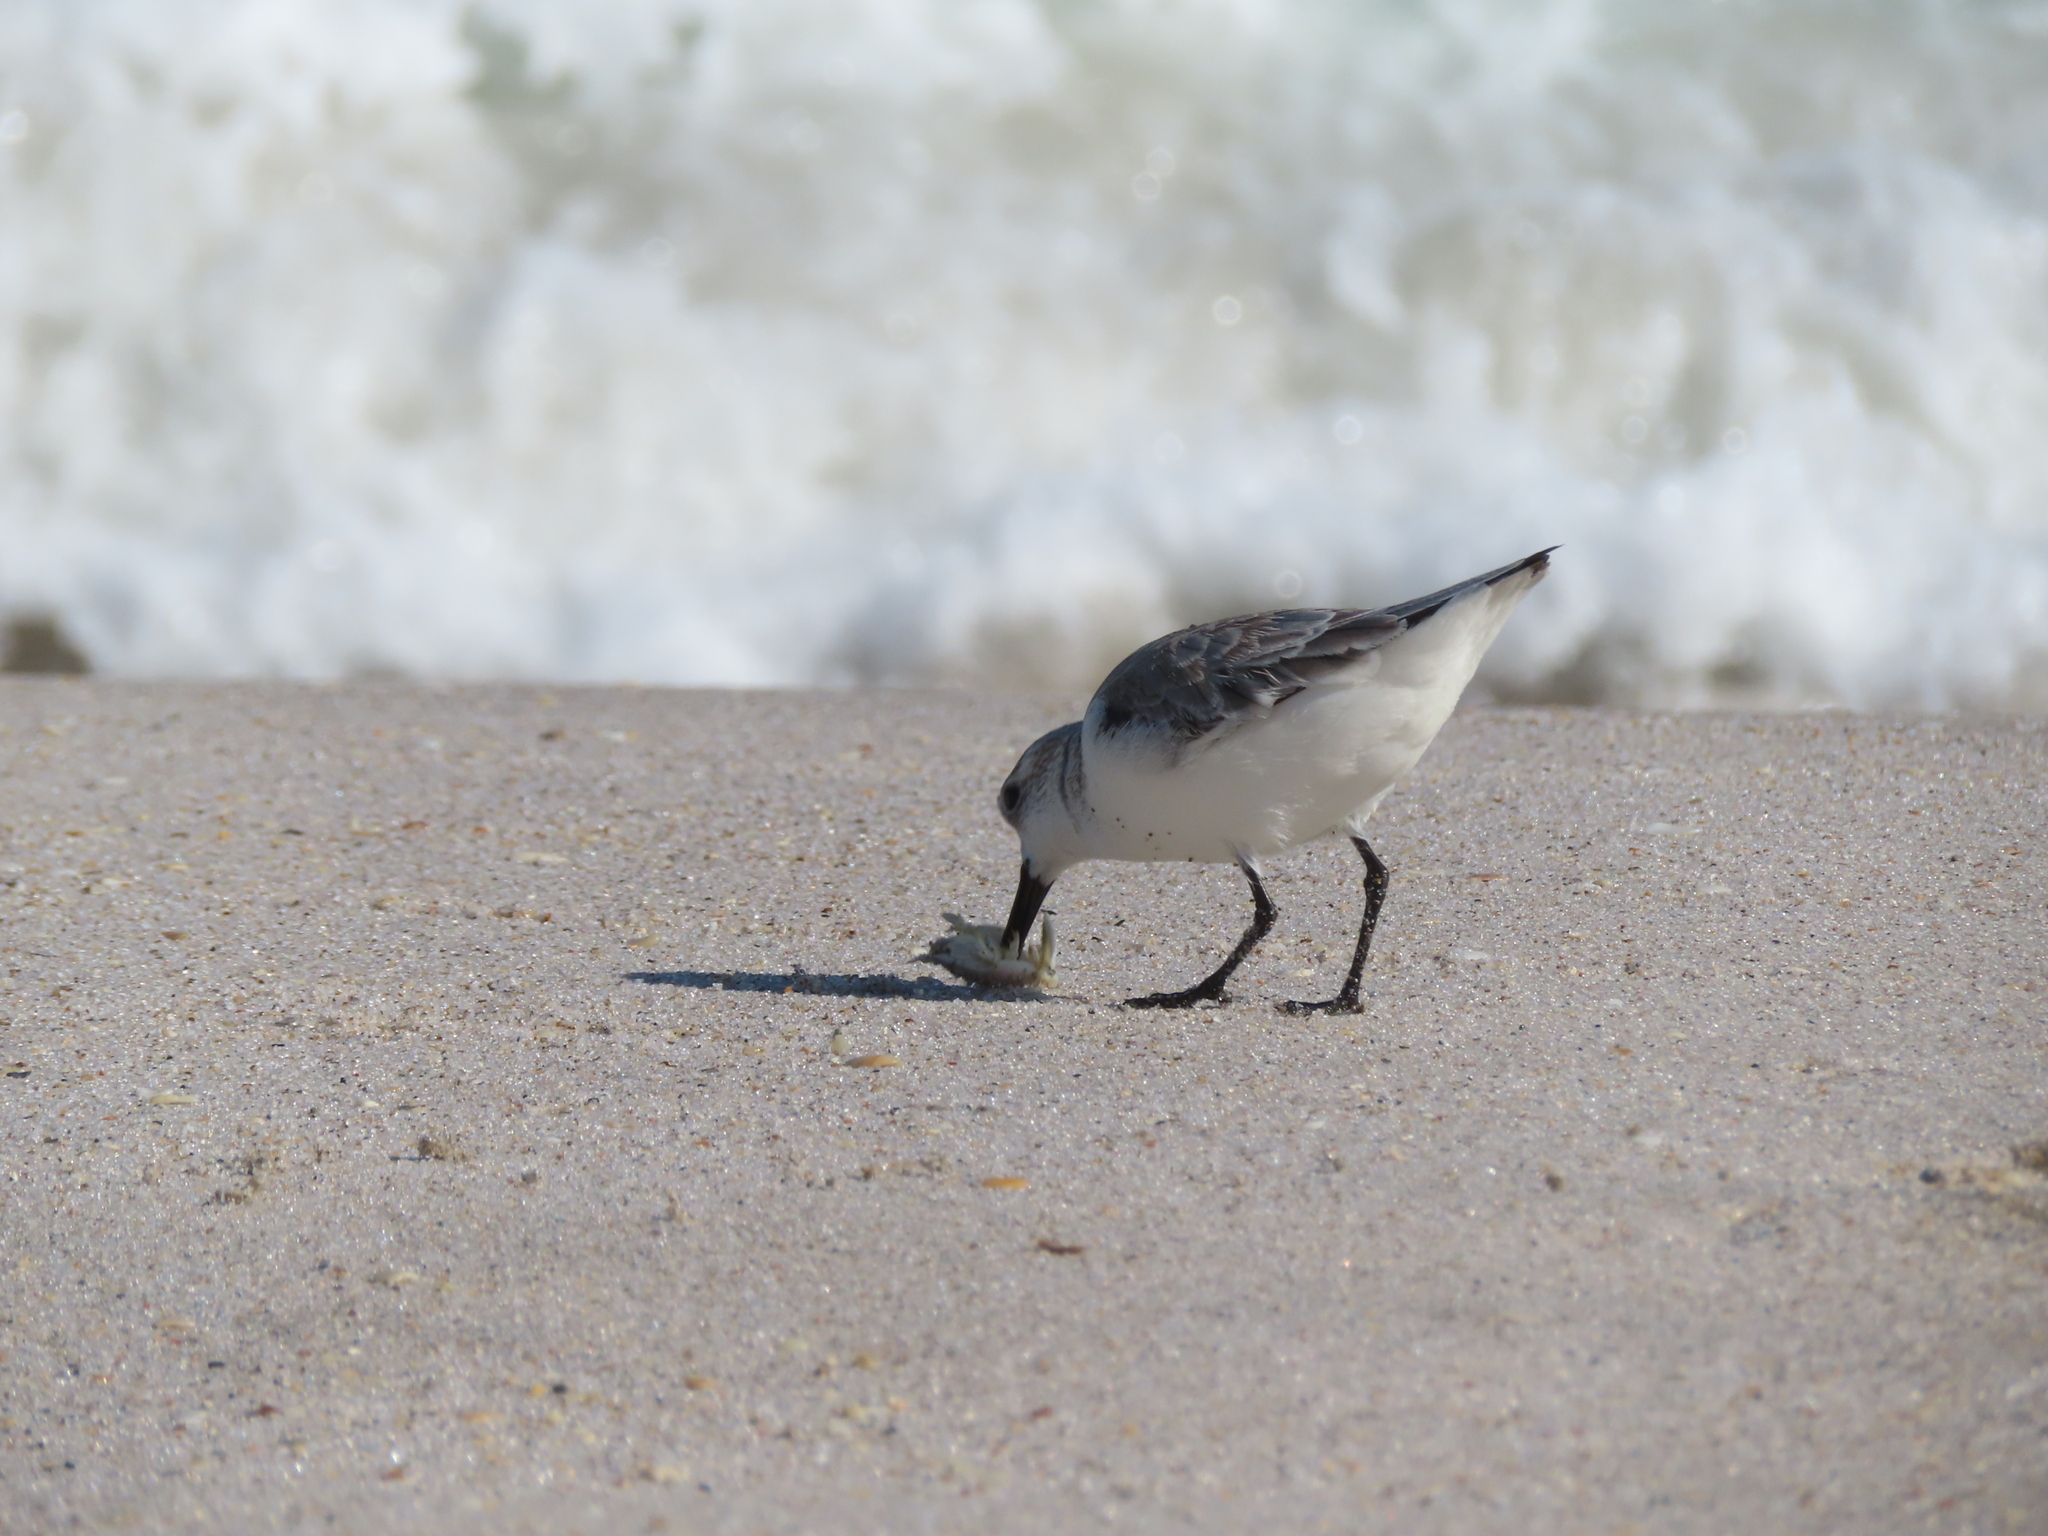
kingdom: Animalia
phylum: Arthropoda
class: Malacostraca
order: Decapoda
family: Hippidae
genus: Emerita
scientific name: Emerita talpoida
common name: Atlantic sand crab
